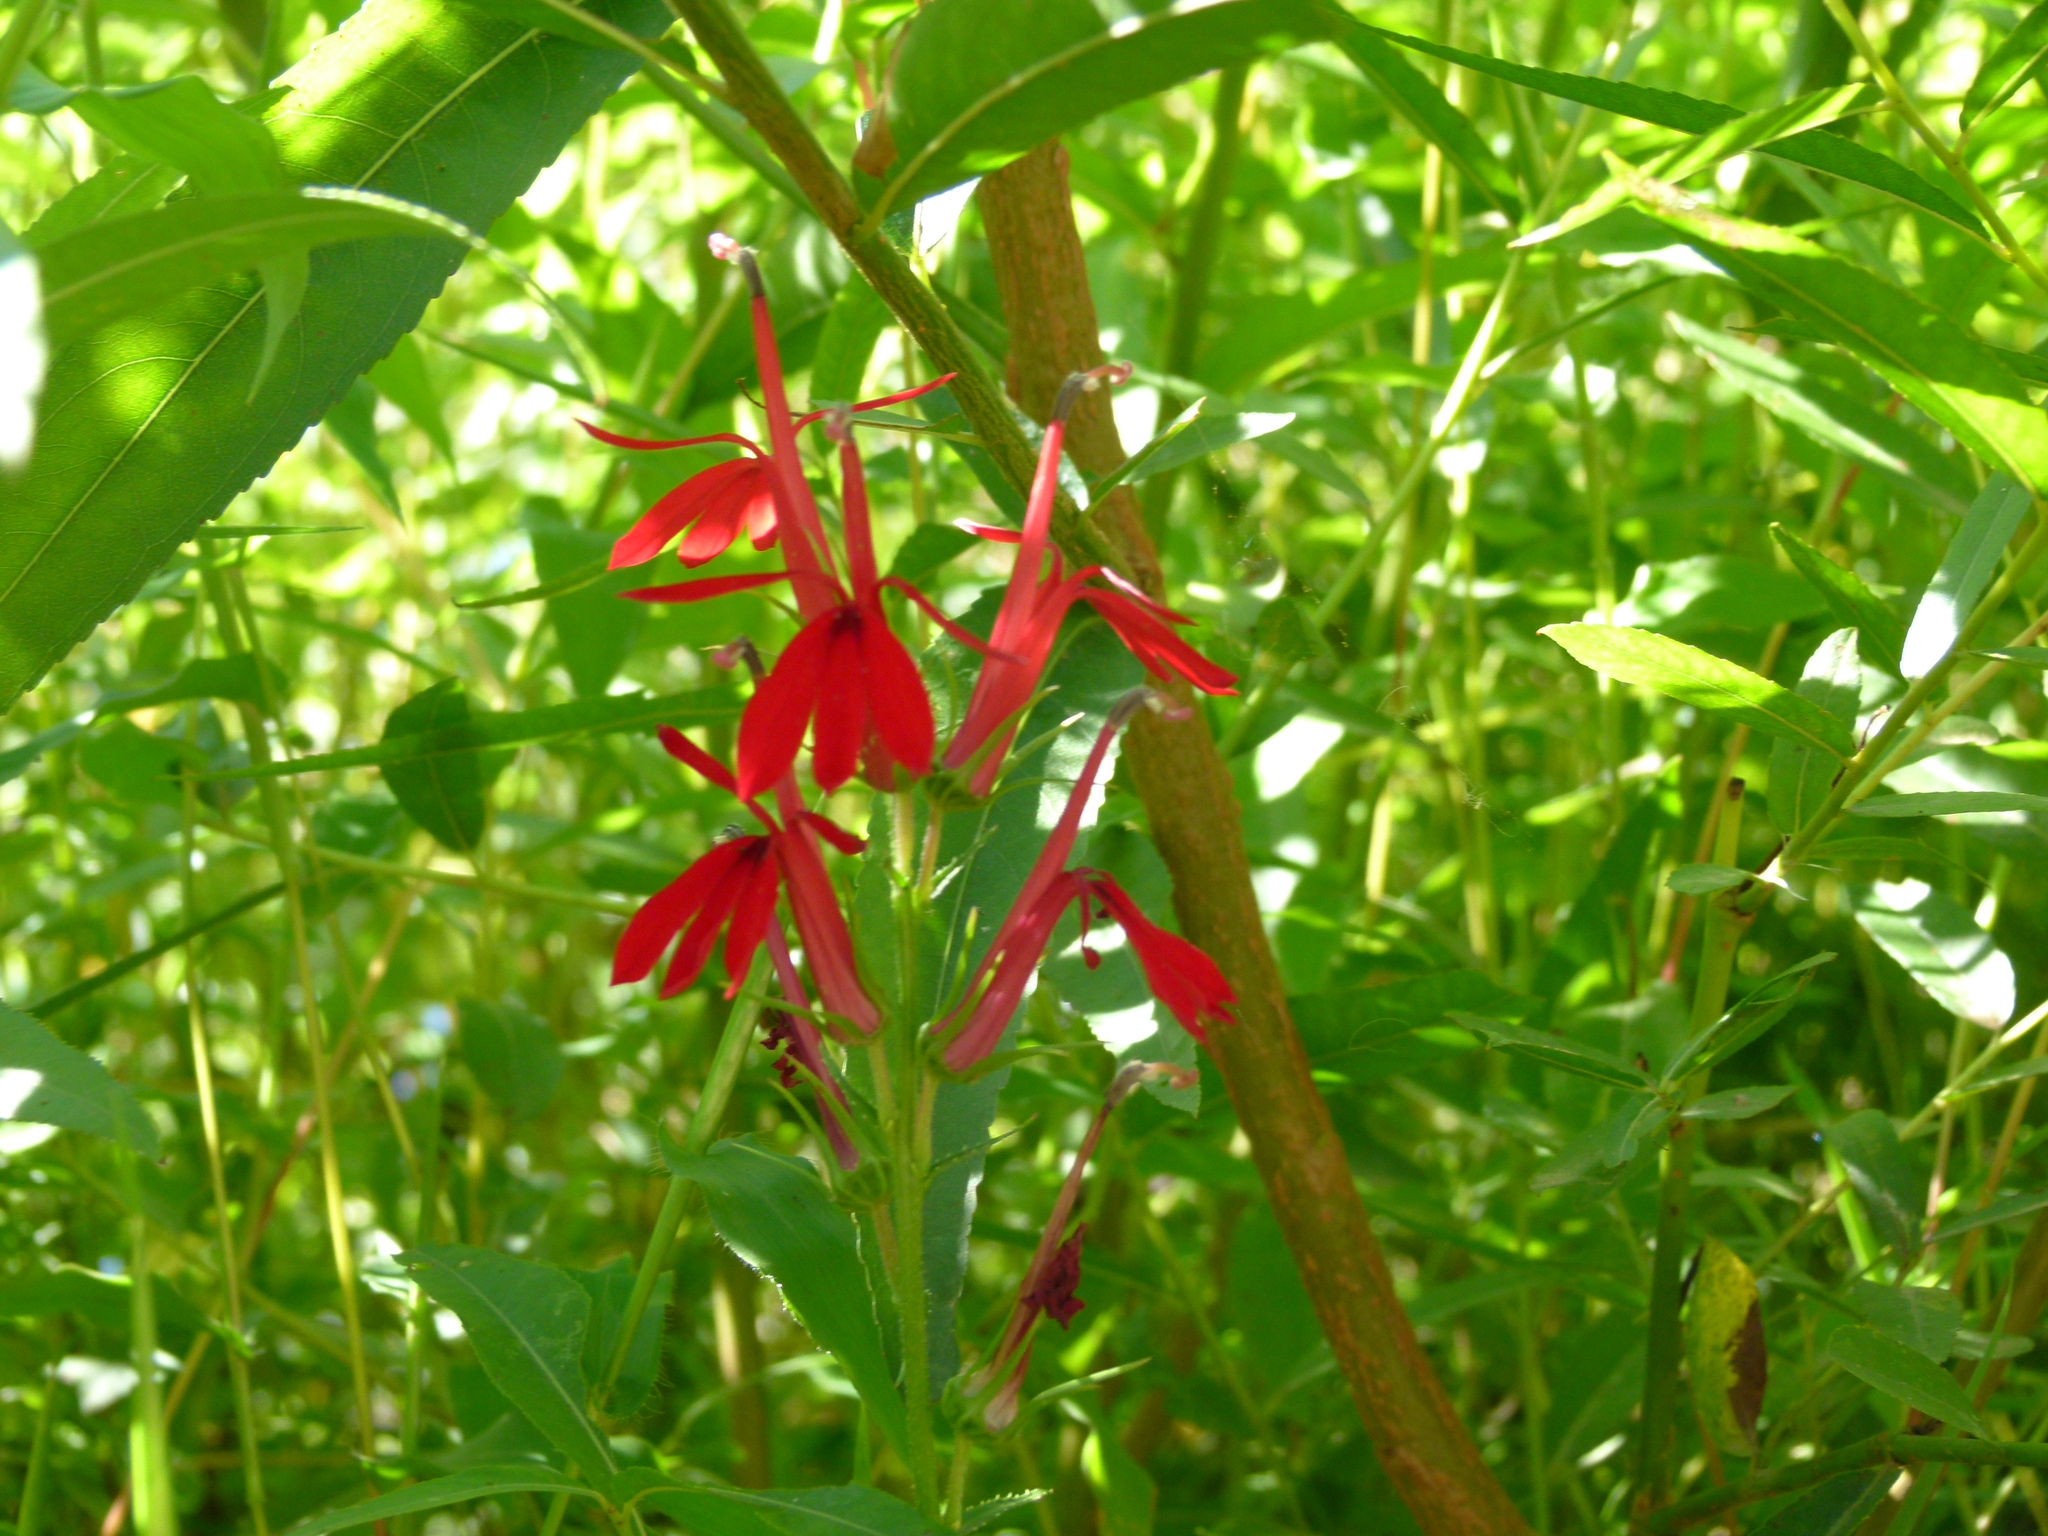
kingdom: Plantae
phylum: Tracheophyta
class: Magnoliopsida
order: Asterales
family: Campanulaceae
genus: Lobelia
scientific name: Lobelia cardinalis
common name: Cardinal flower
